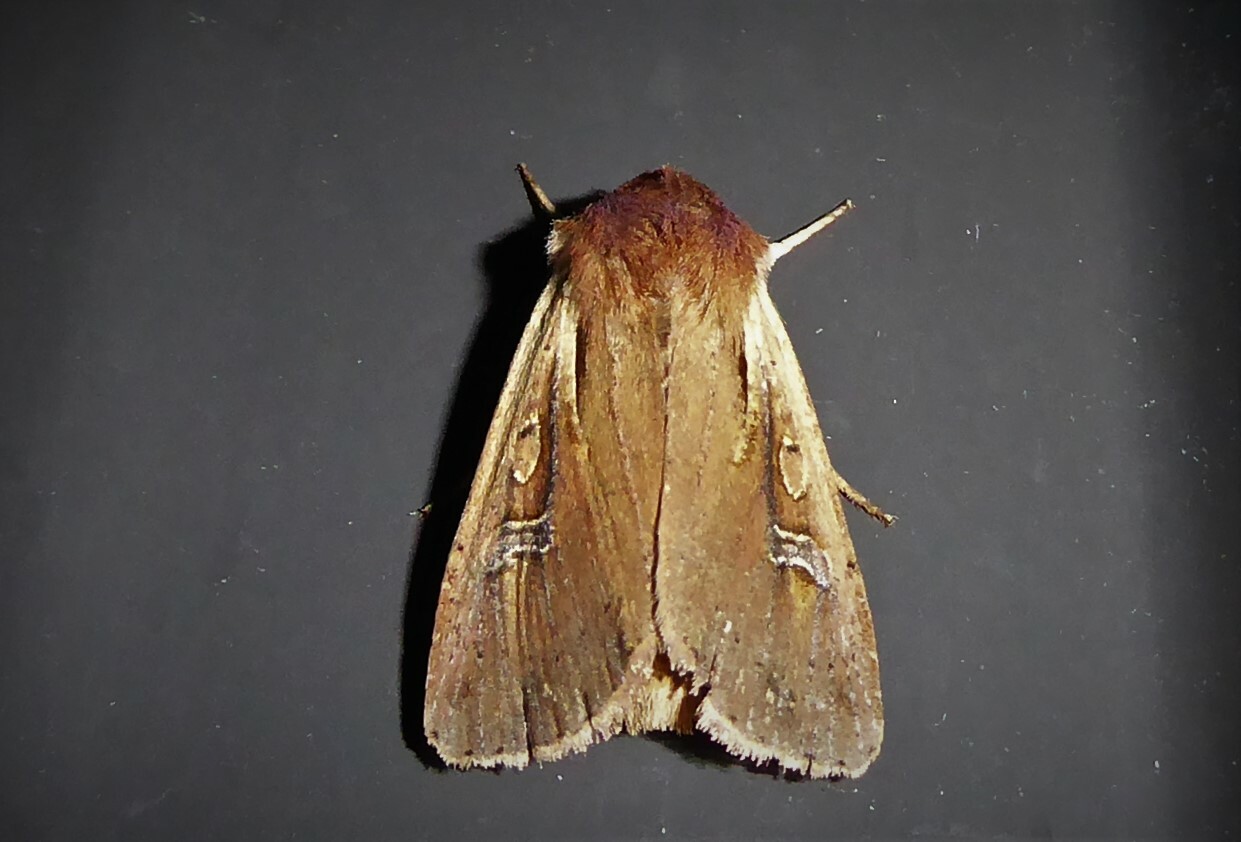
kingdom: Animalia
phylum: Arthropoda
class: Insecta
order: Lepidoptera
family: Noctuidae
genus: Ichneutica
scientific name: Ichneutica atristriga
